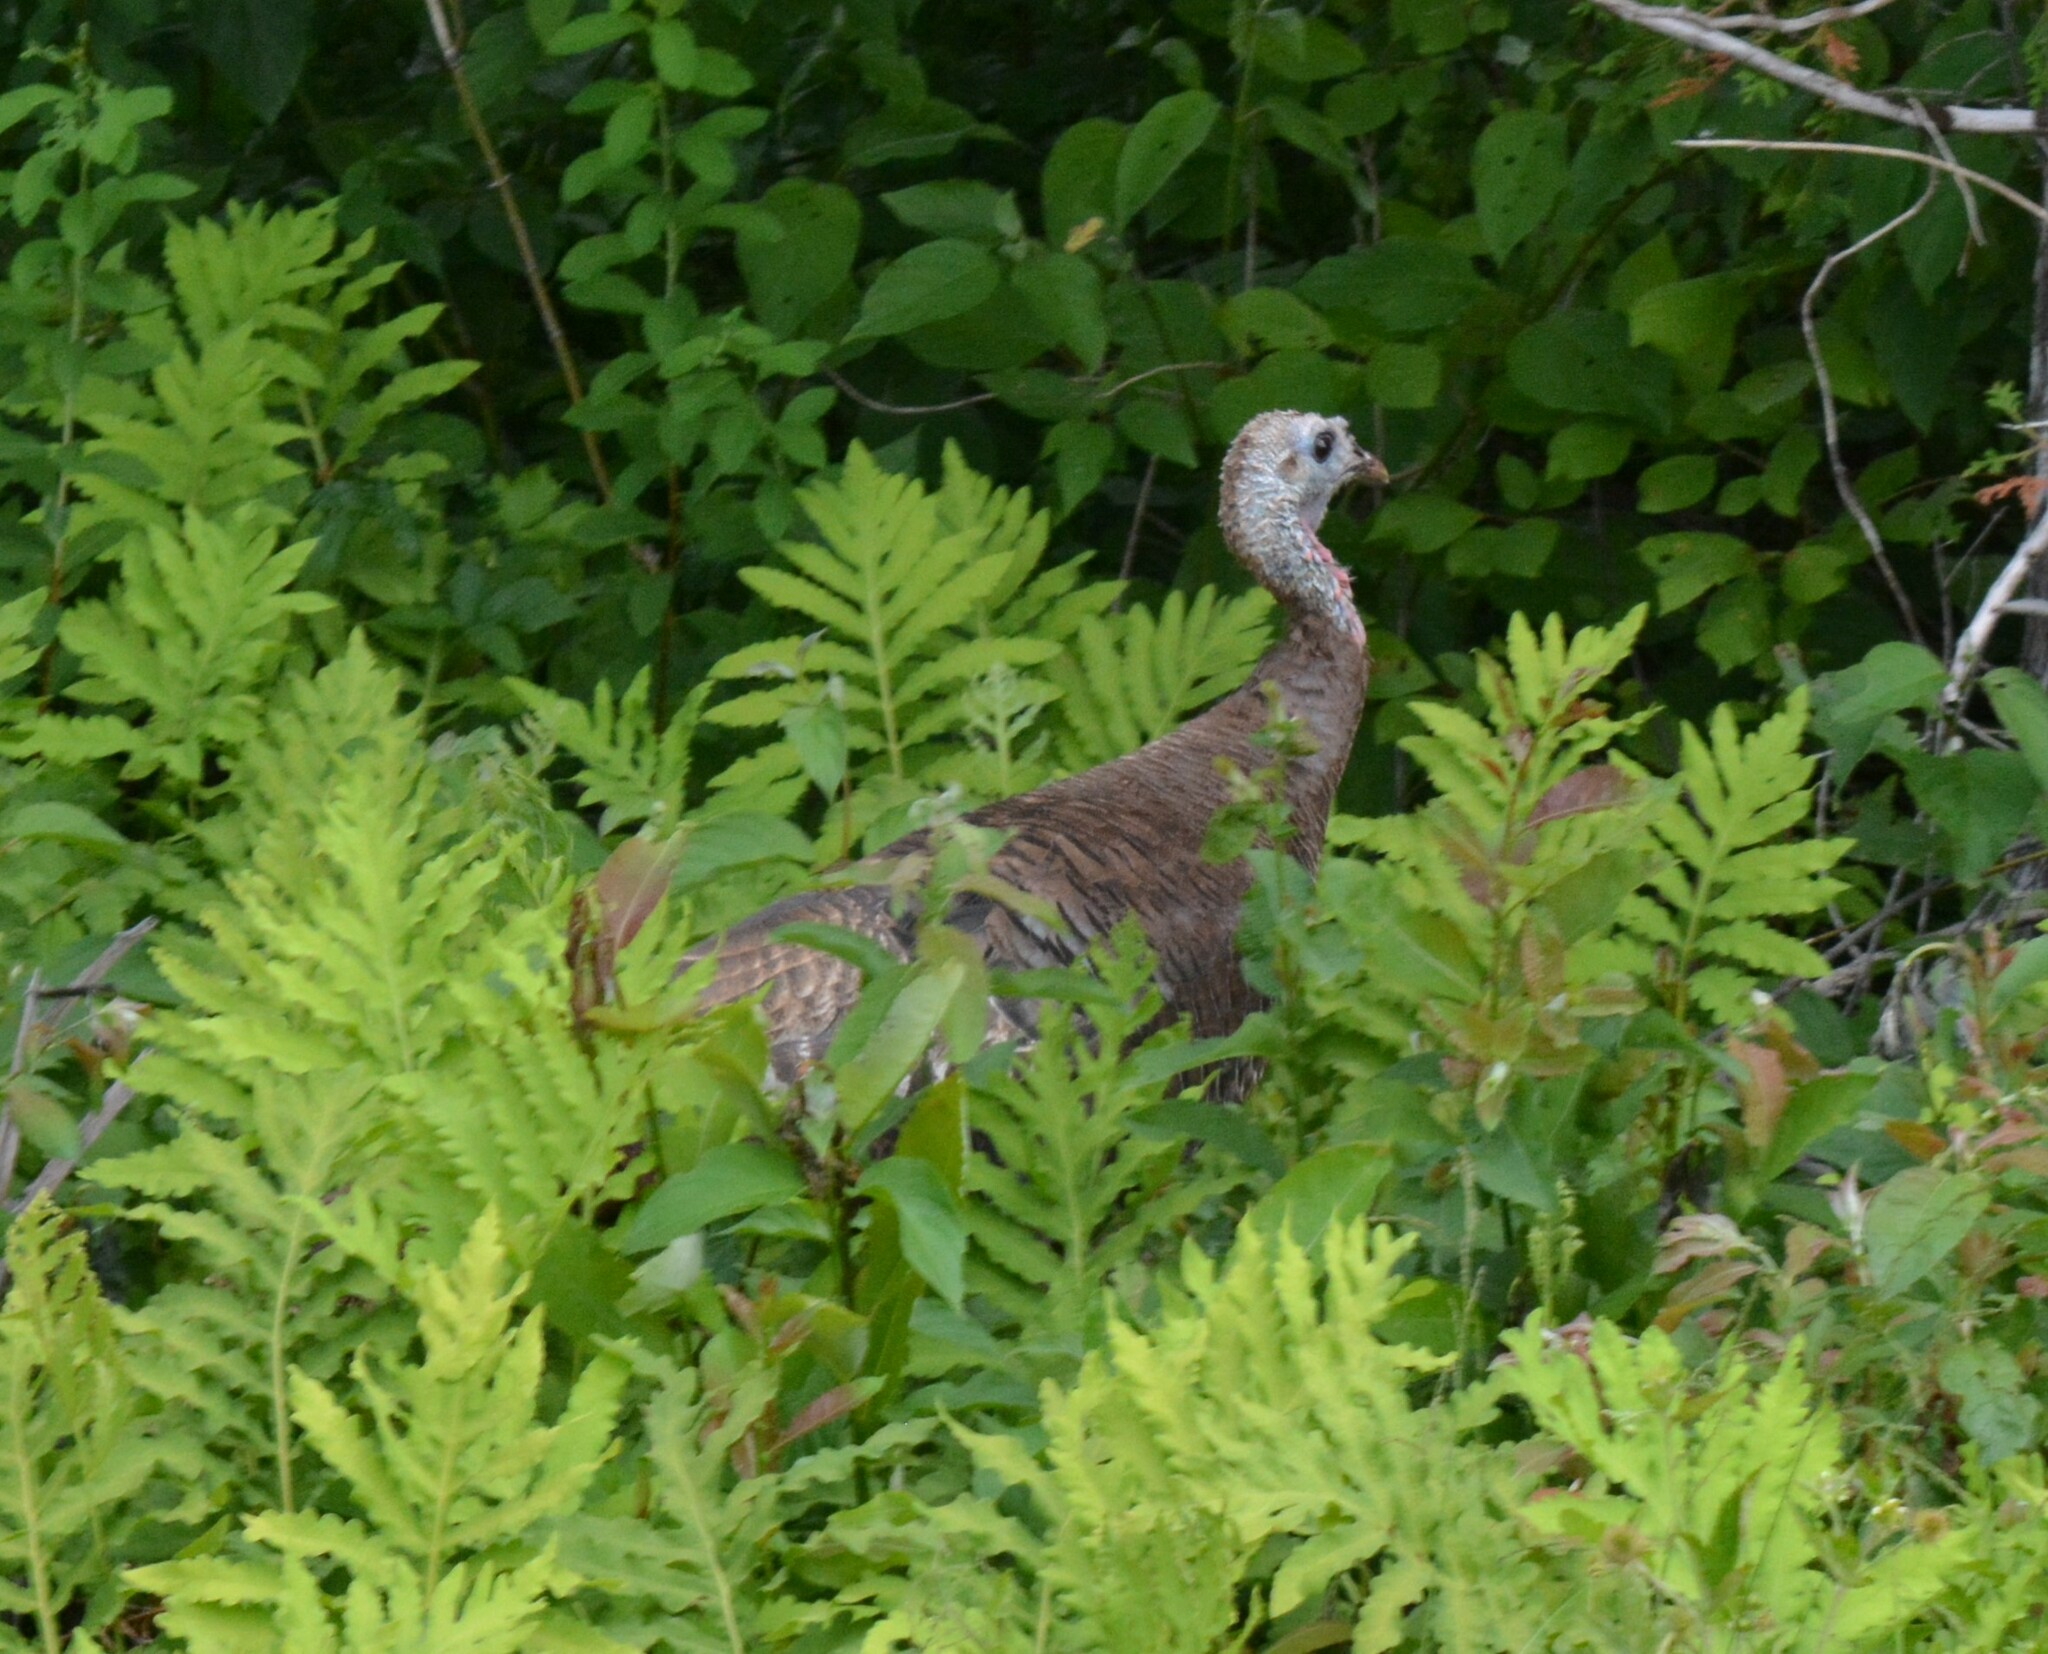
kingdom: Animalia
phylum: Chordata
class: Aves
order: Galliformes
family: Phasianidae
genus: Meleagris
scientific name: Meleagris gallopavo
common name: Wild turkey
